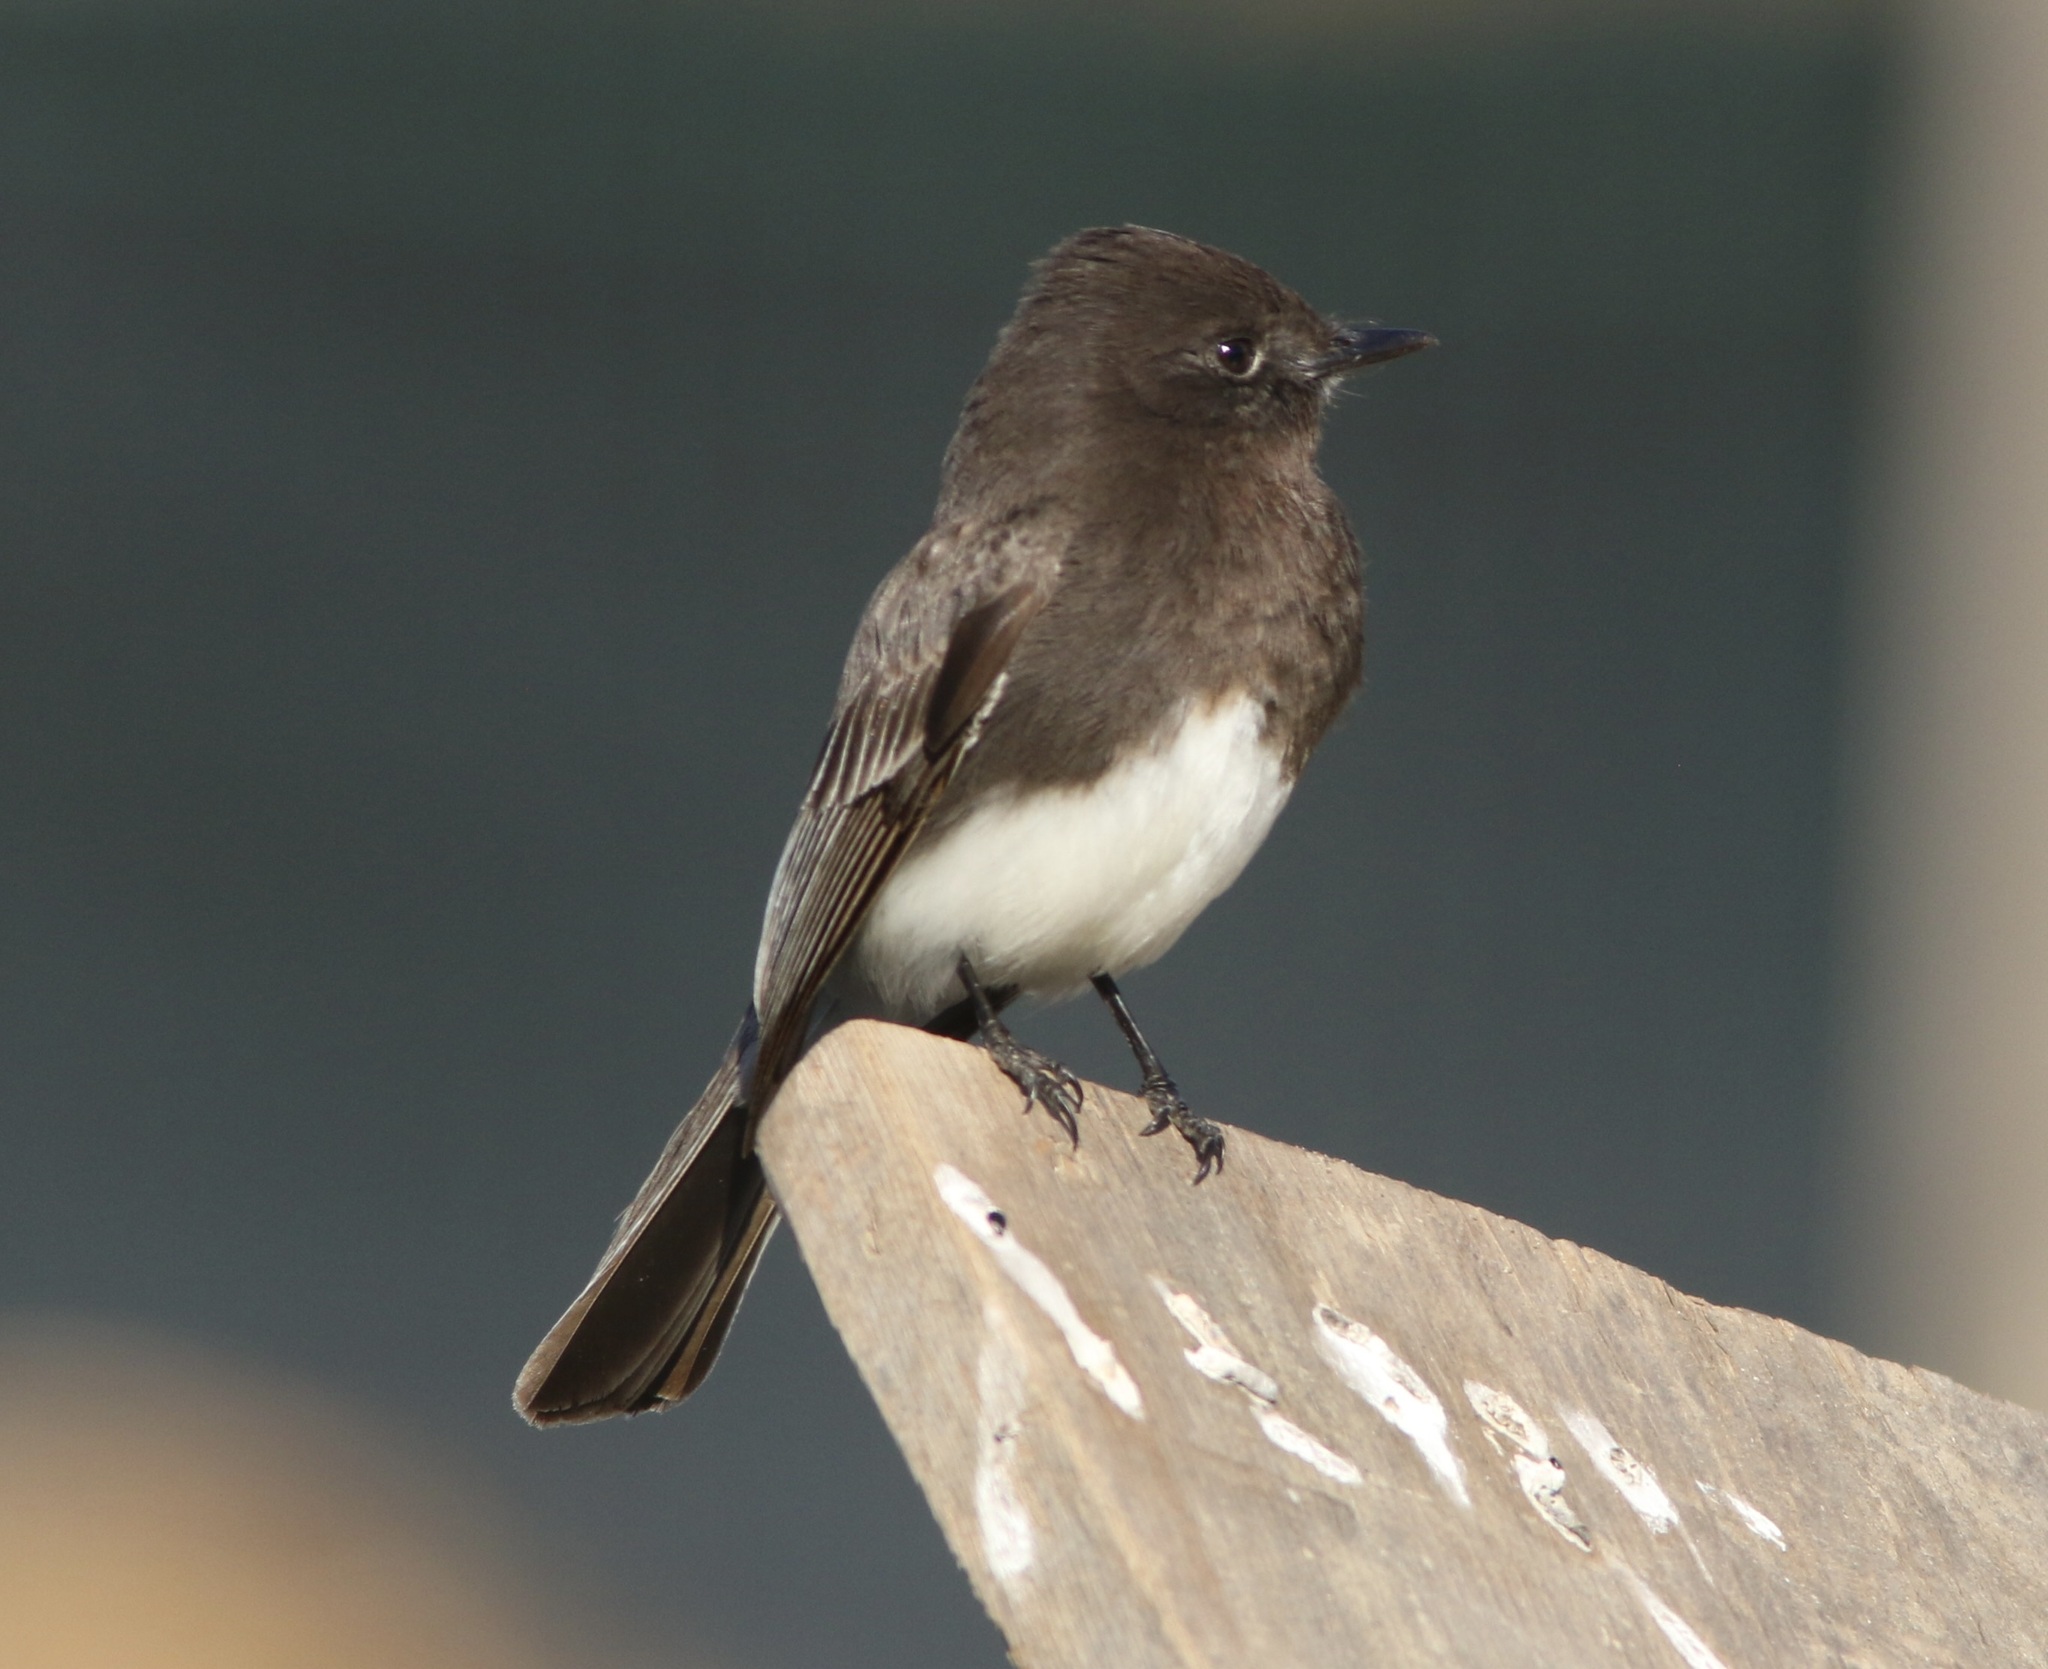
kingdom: Animalia
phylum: Chordata
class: Aves
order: Passeriformes
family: Tyrannidae
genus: Sayornis
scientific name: Sayornis nigricans
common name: Black phoebe
